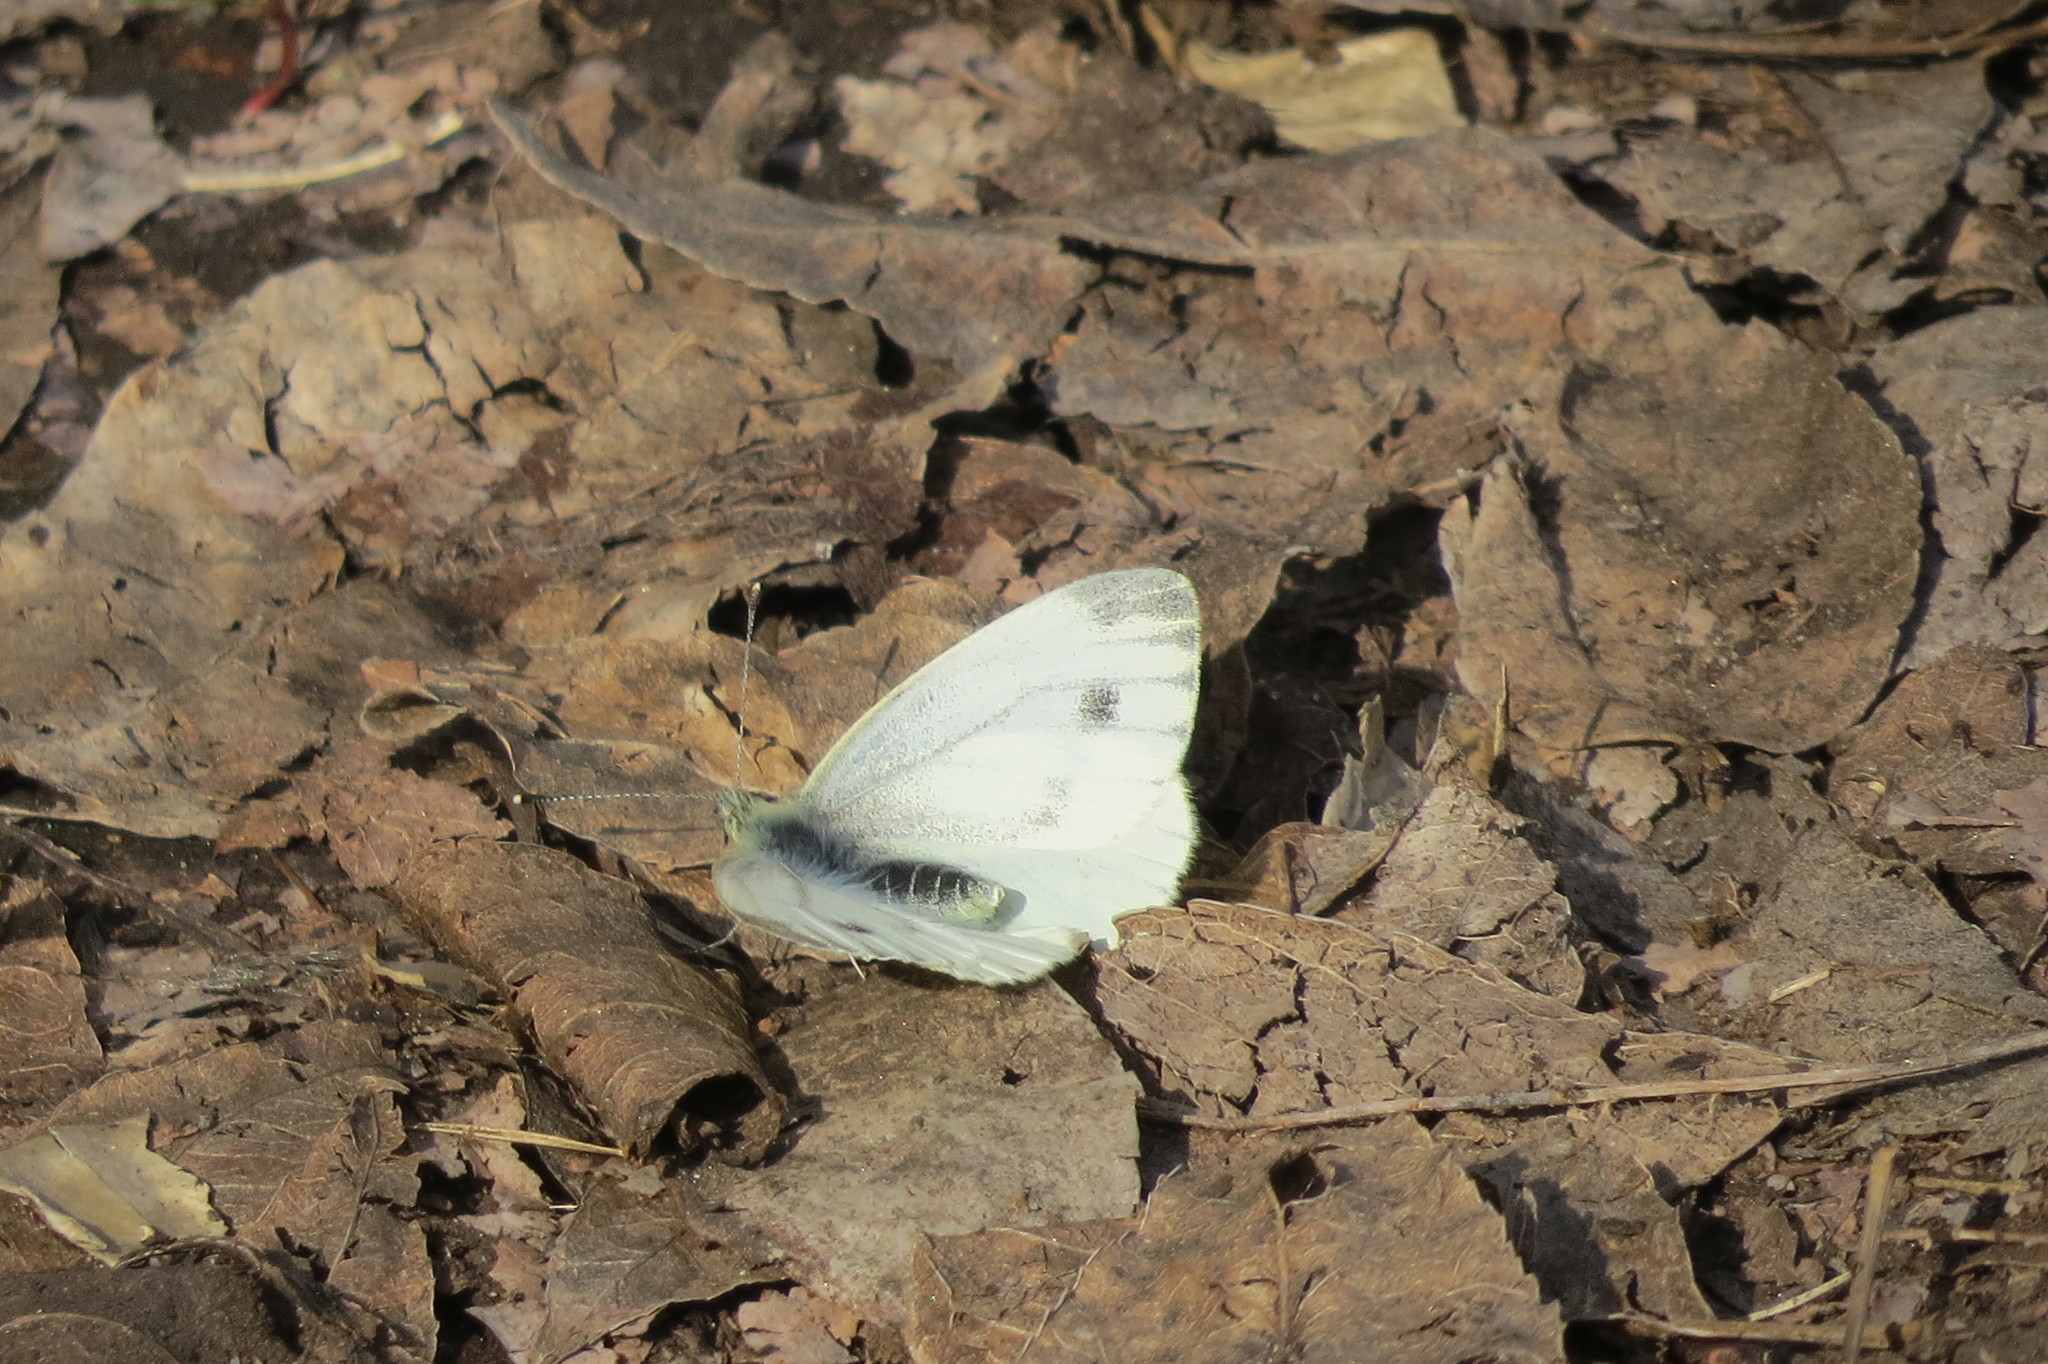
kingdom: Animalia
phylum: Arthropoda
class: Insecta
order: Lepidoptera
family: Pieridae
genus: Pieris
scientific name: Pieris napi
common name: Green-veined white
